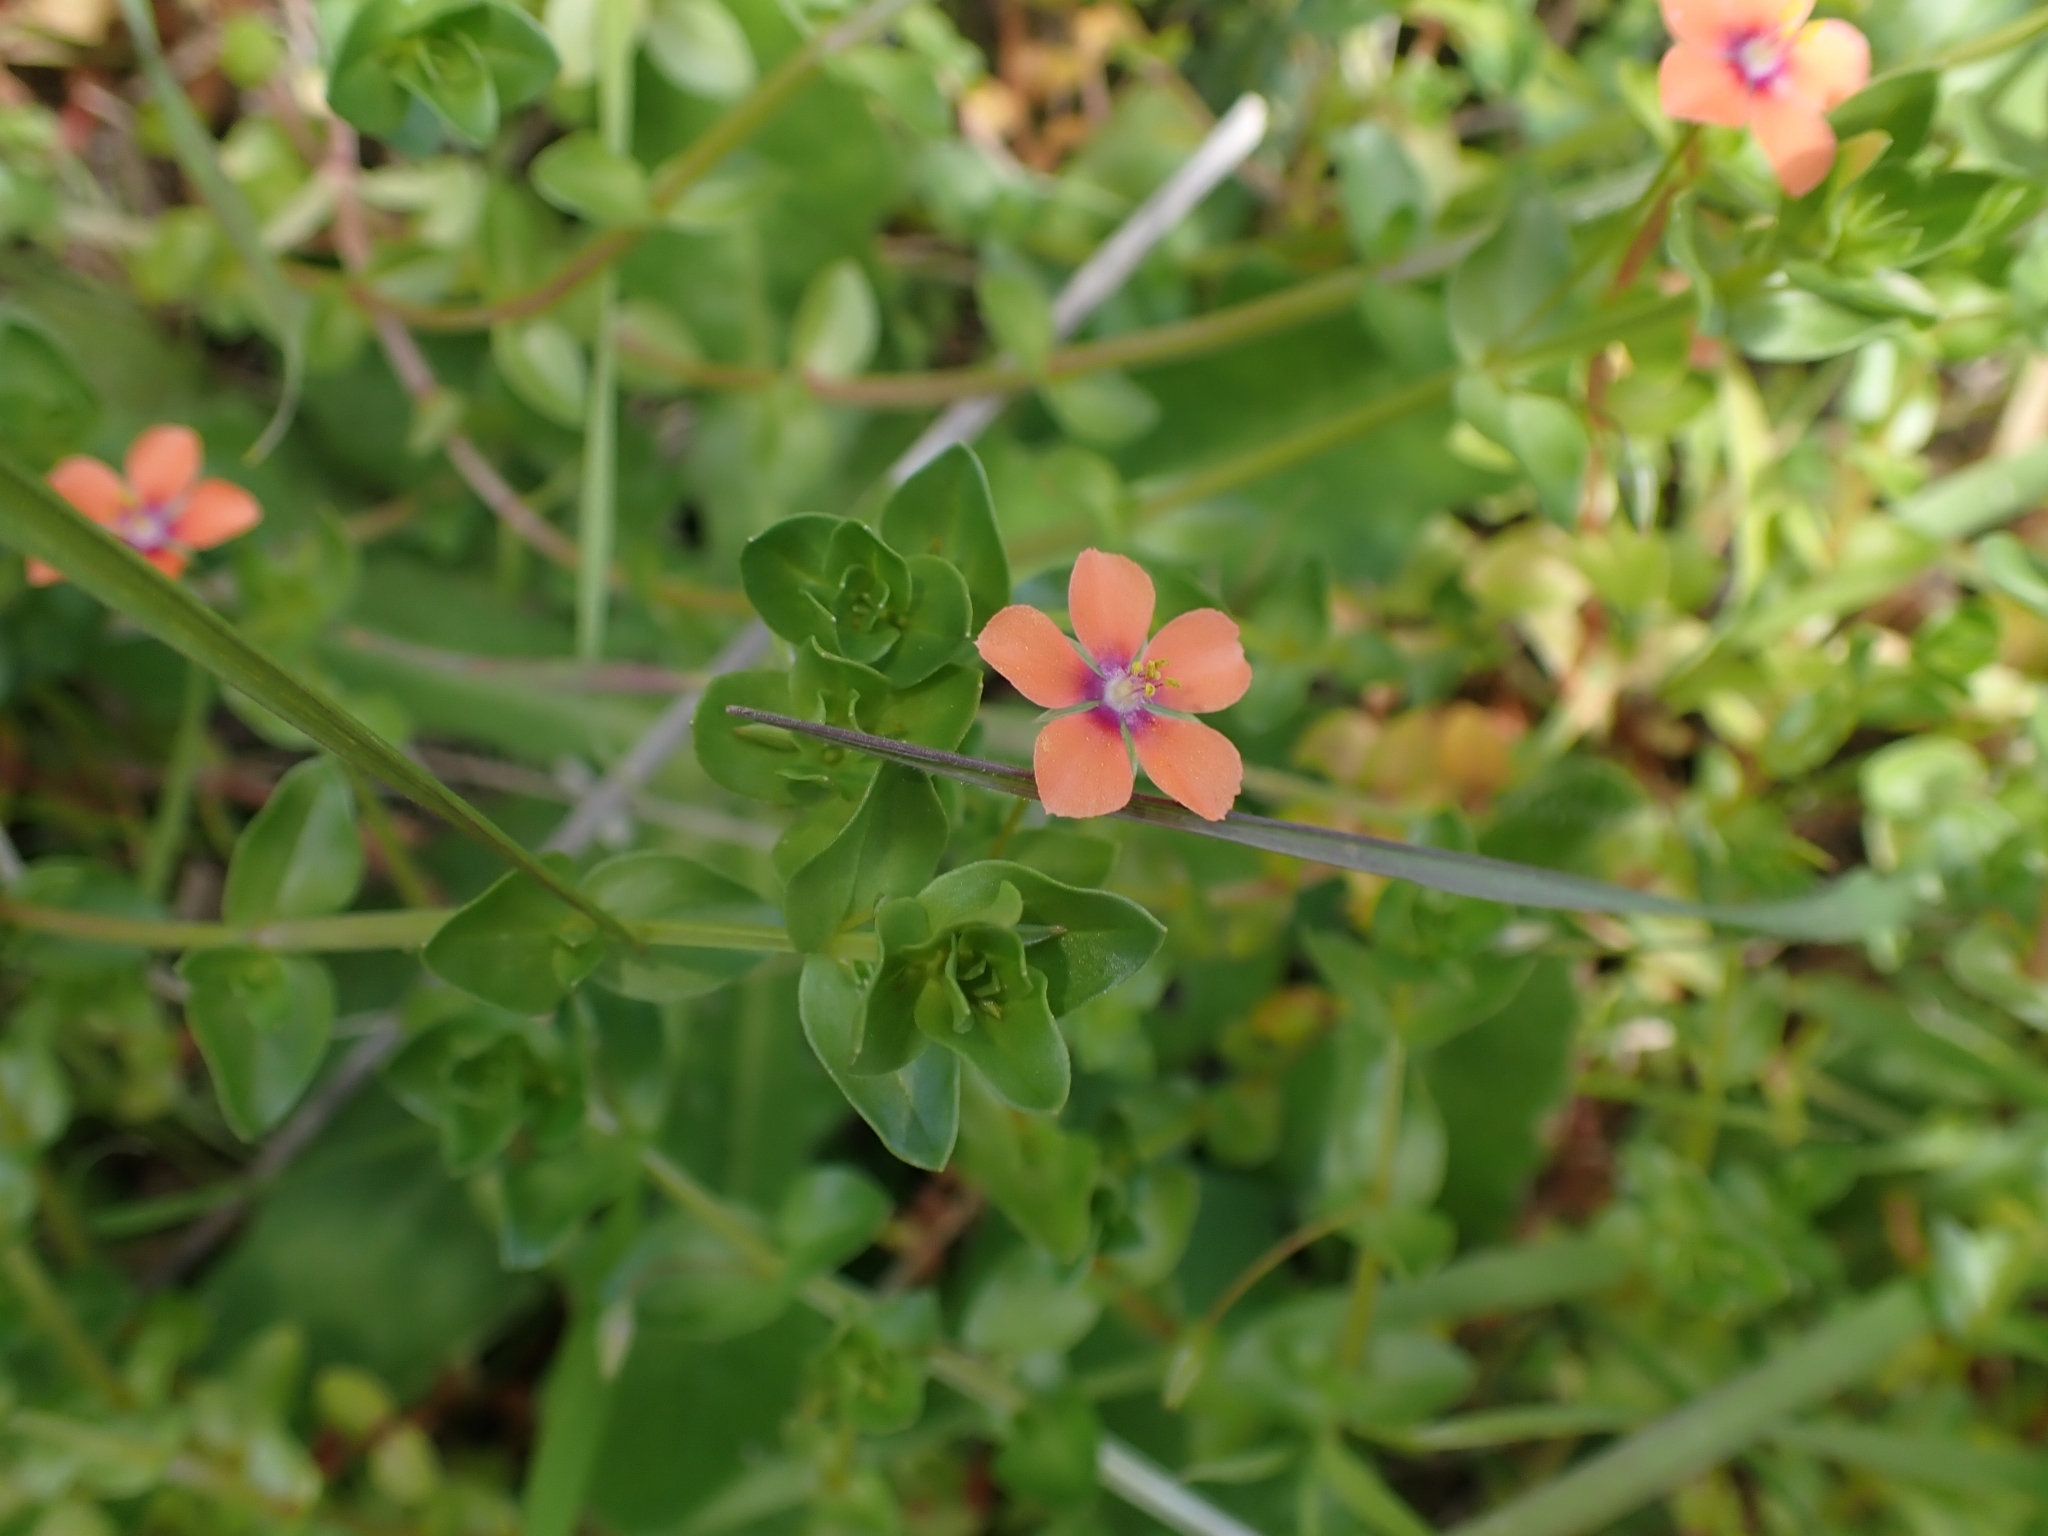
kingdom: Plantae
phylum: Tracheophyta
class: Magnoliopsida
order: Ericales
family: Primulaceae
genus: Lysimachia
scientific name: Lysimachia arvensis
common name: Scarlet pimpernel
